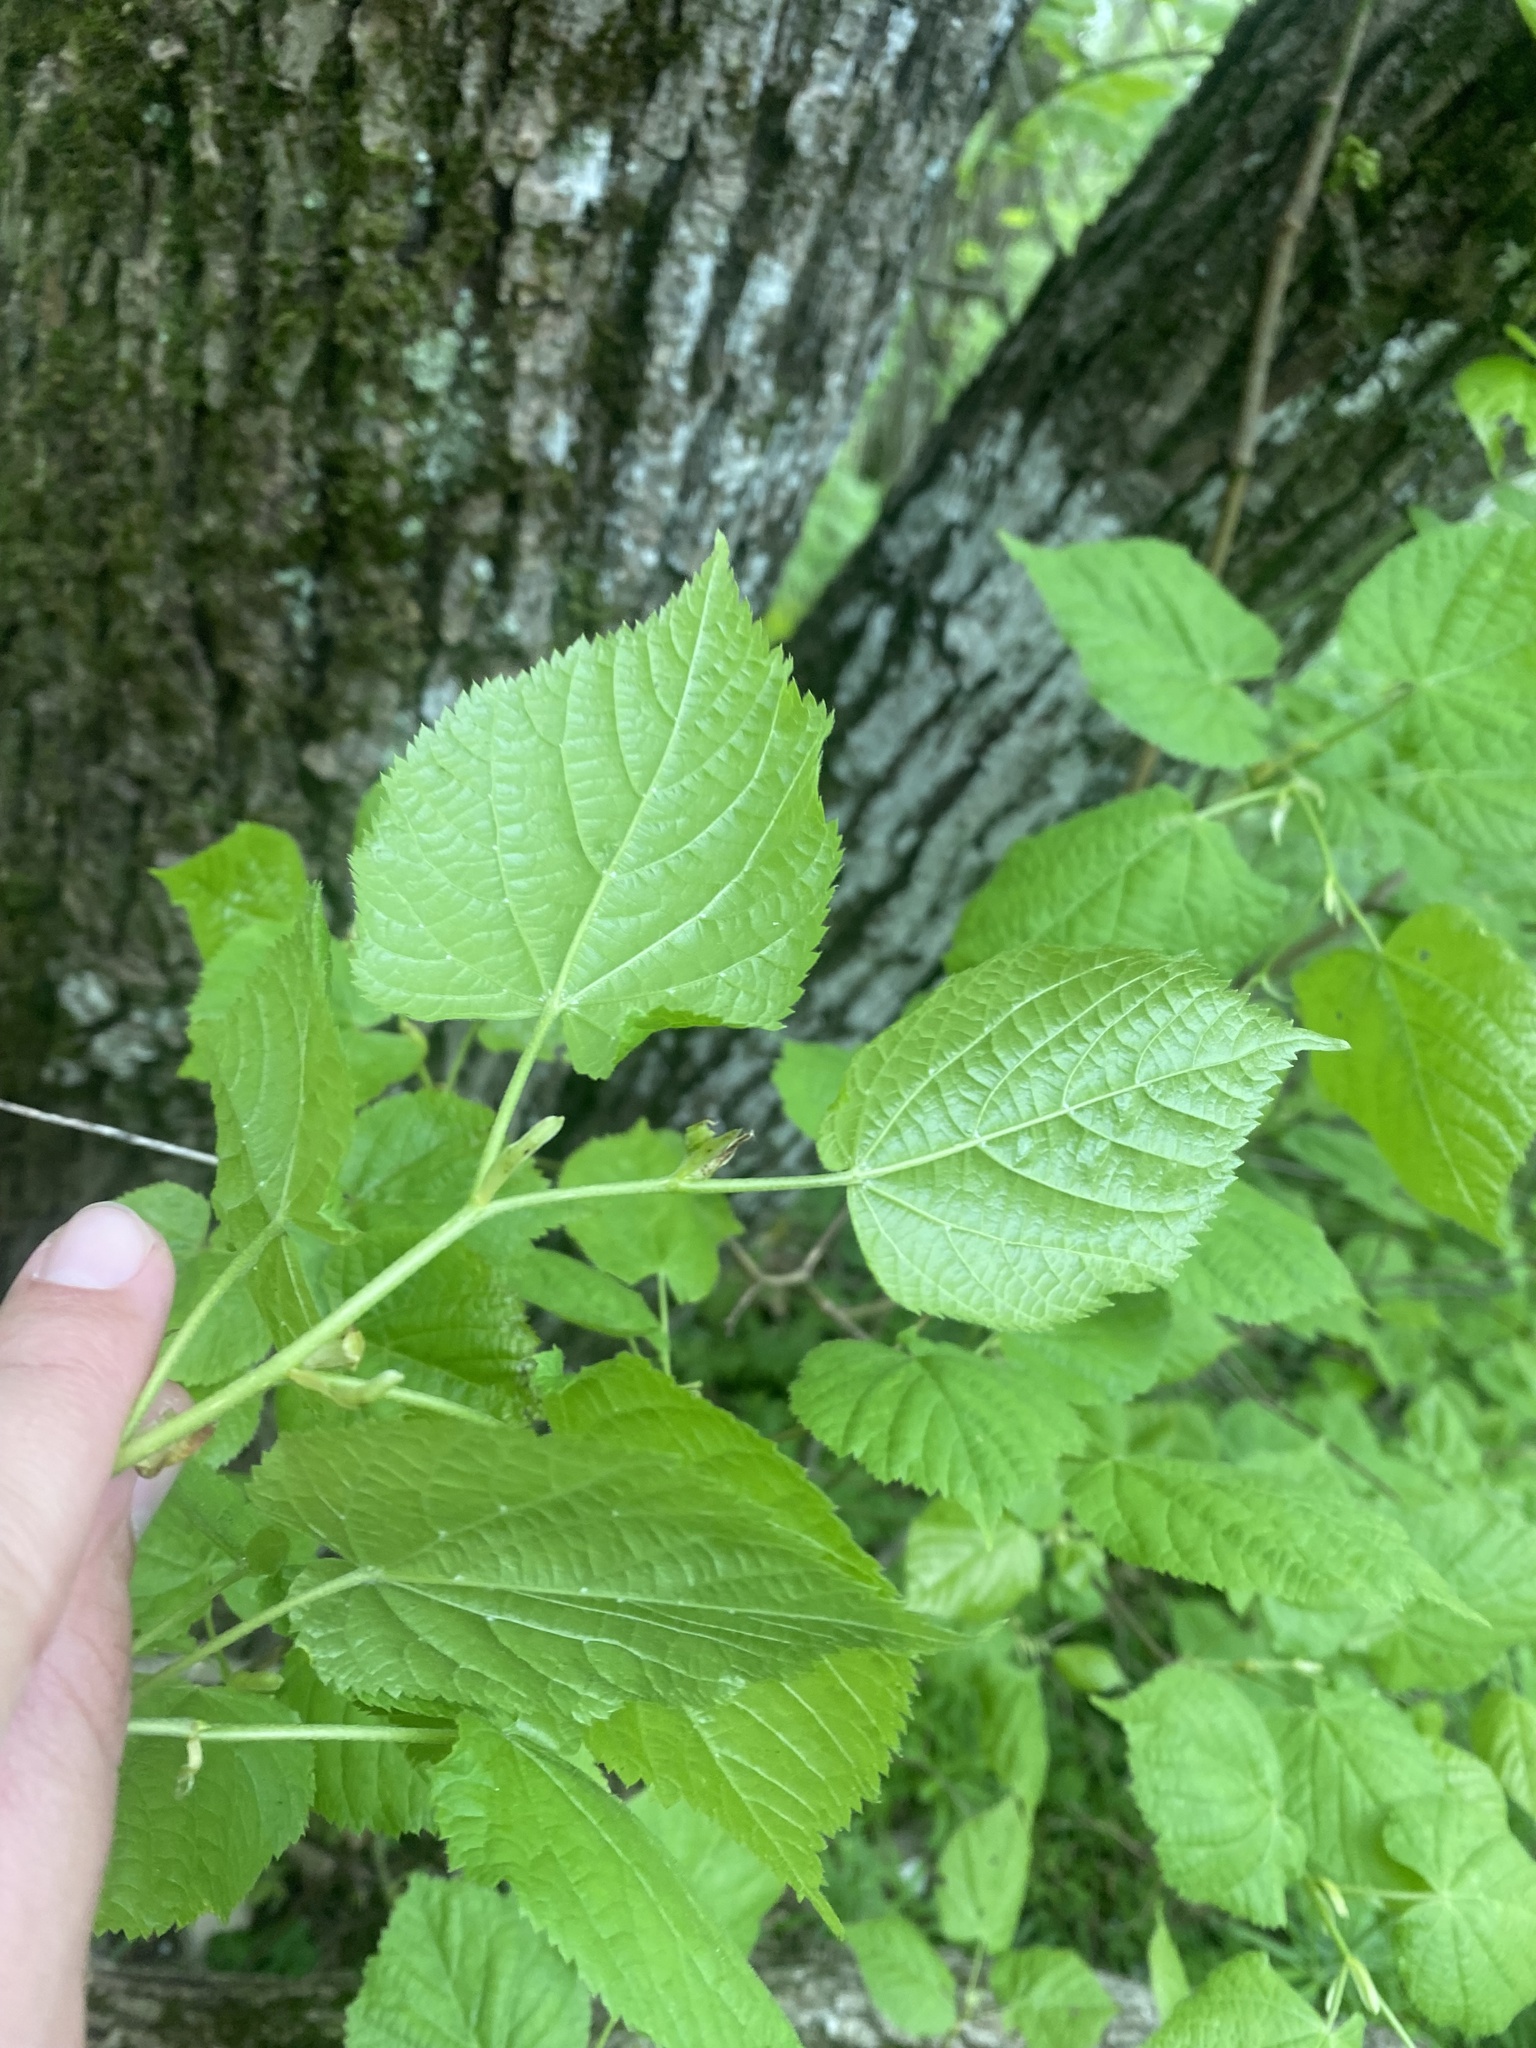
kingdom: Plantae
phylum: Tracheophyta
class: Magnoliopsida
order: Malvales
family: Malvaceae
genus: Tilia
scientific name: Tilia
